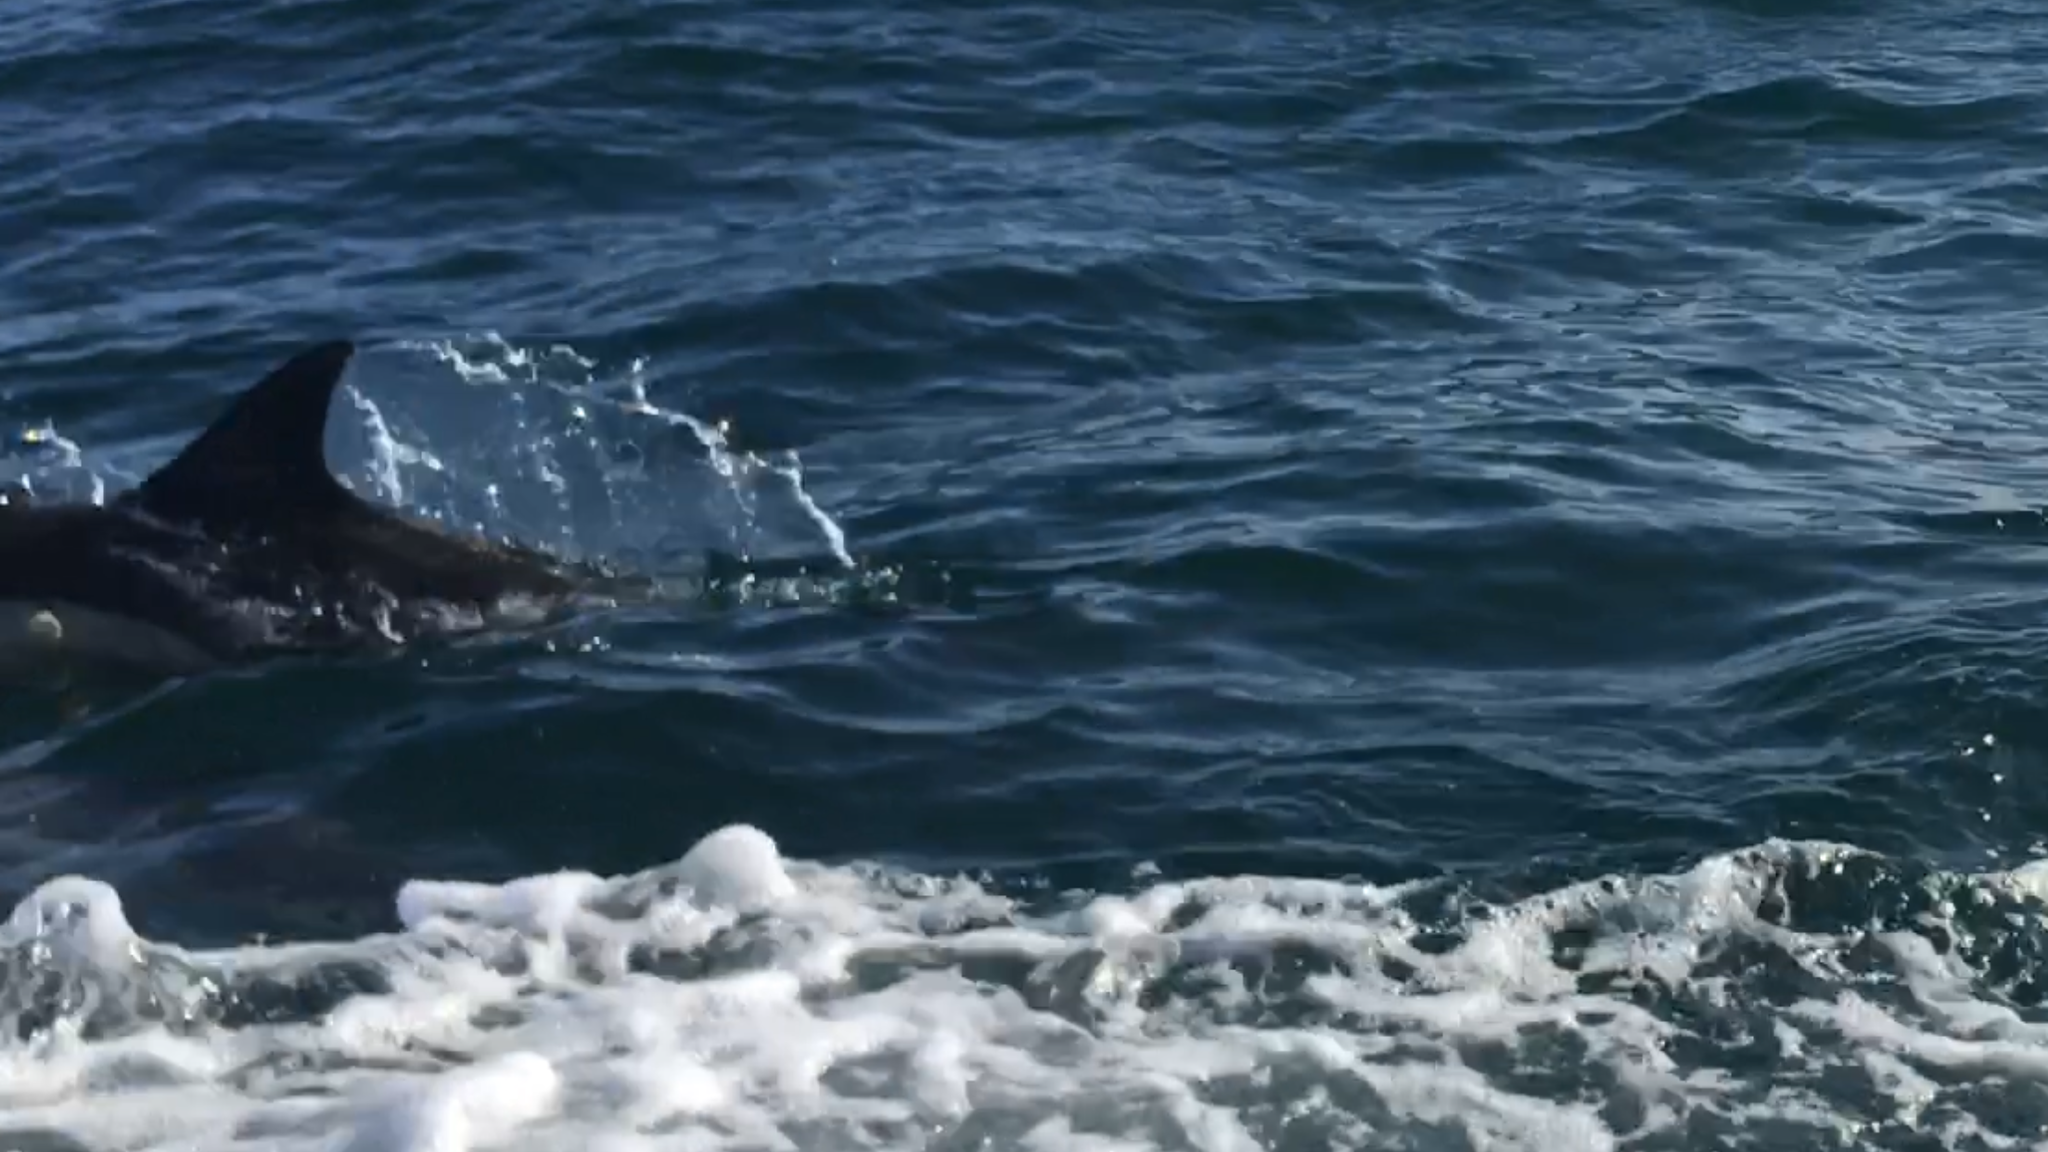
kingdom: Animalia
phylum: Chordata
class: Mammalia
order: Cetacea
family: Delphinidae
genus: Delphinus
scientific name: Delphinus delphis
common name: Common dolphin
